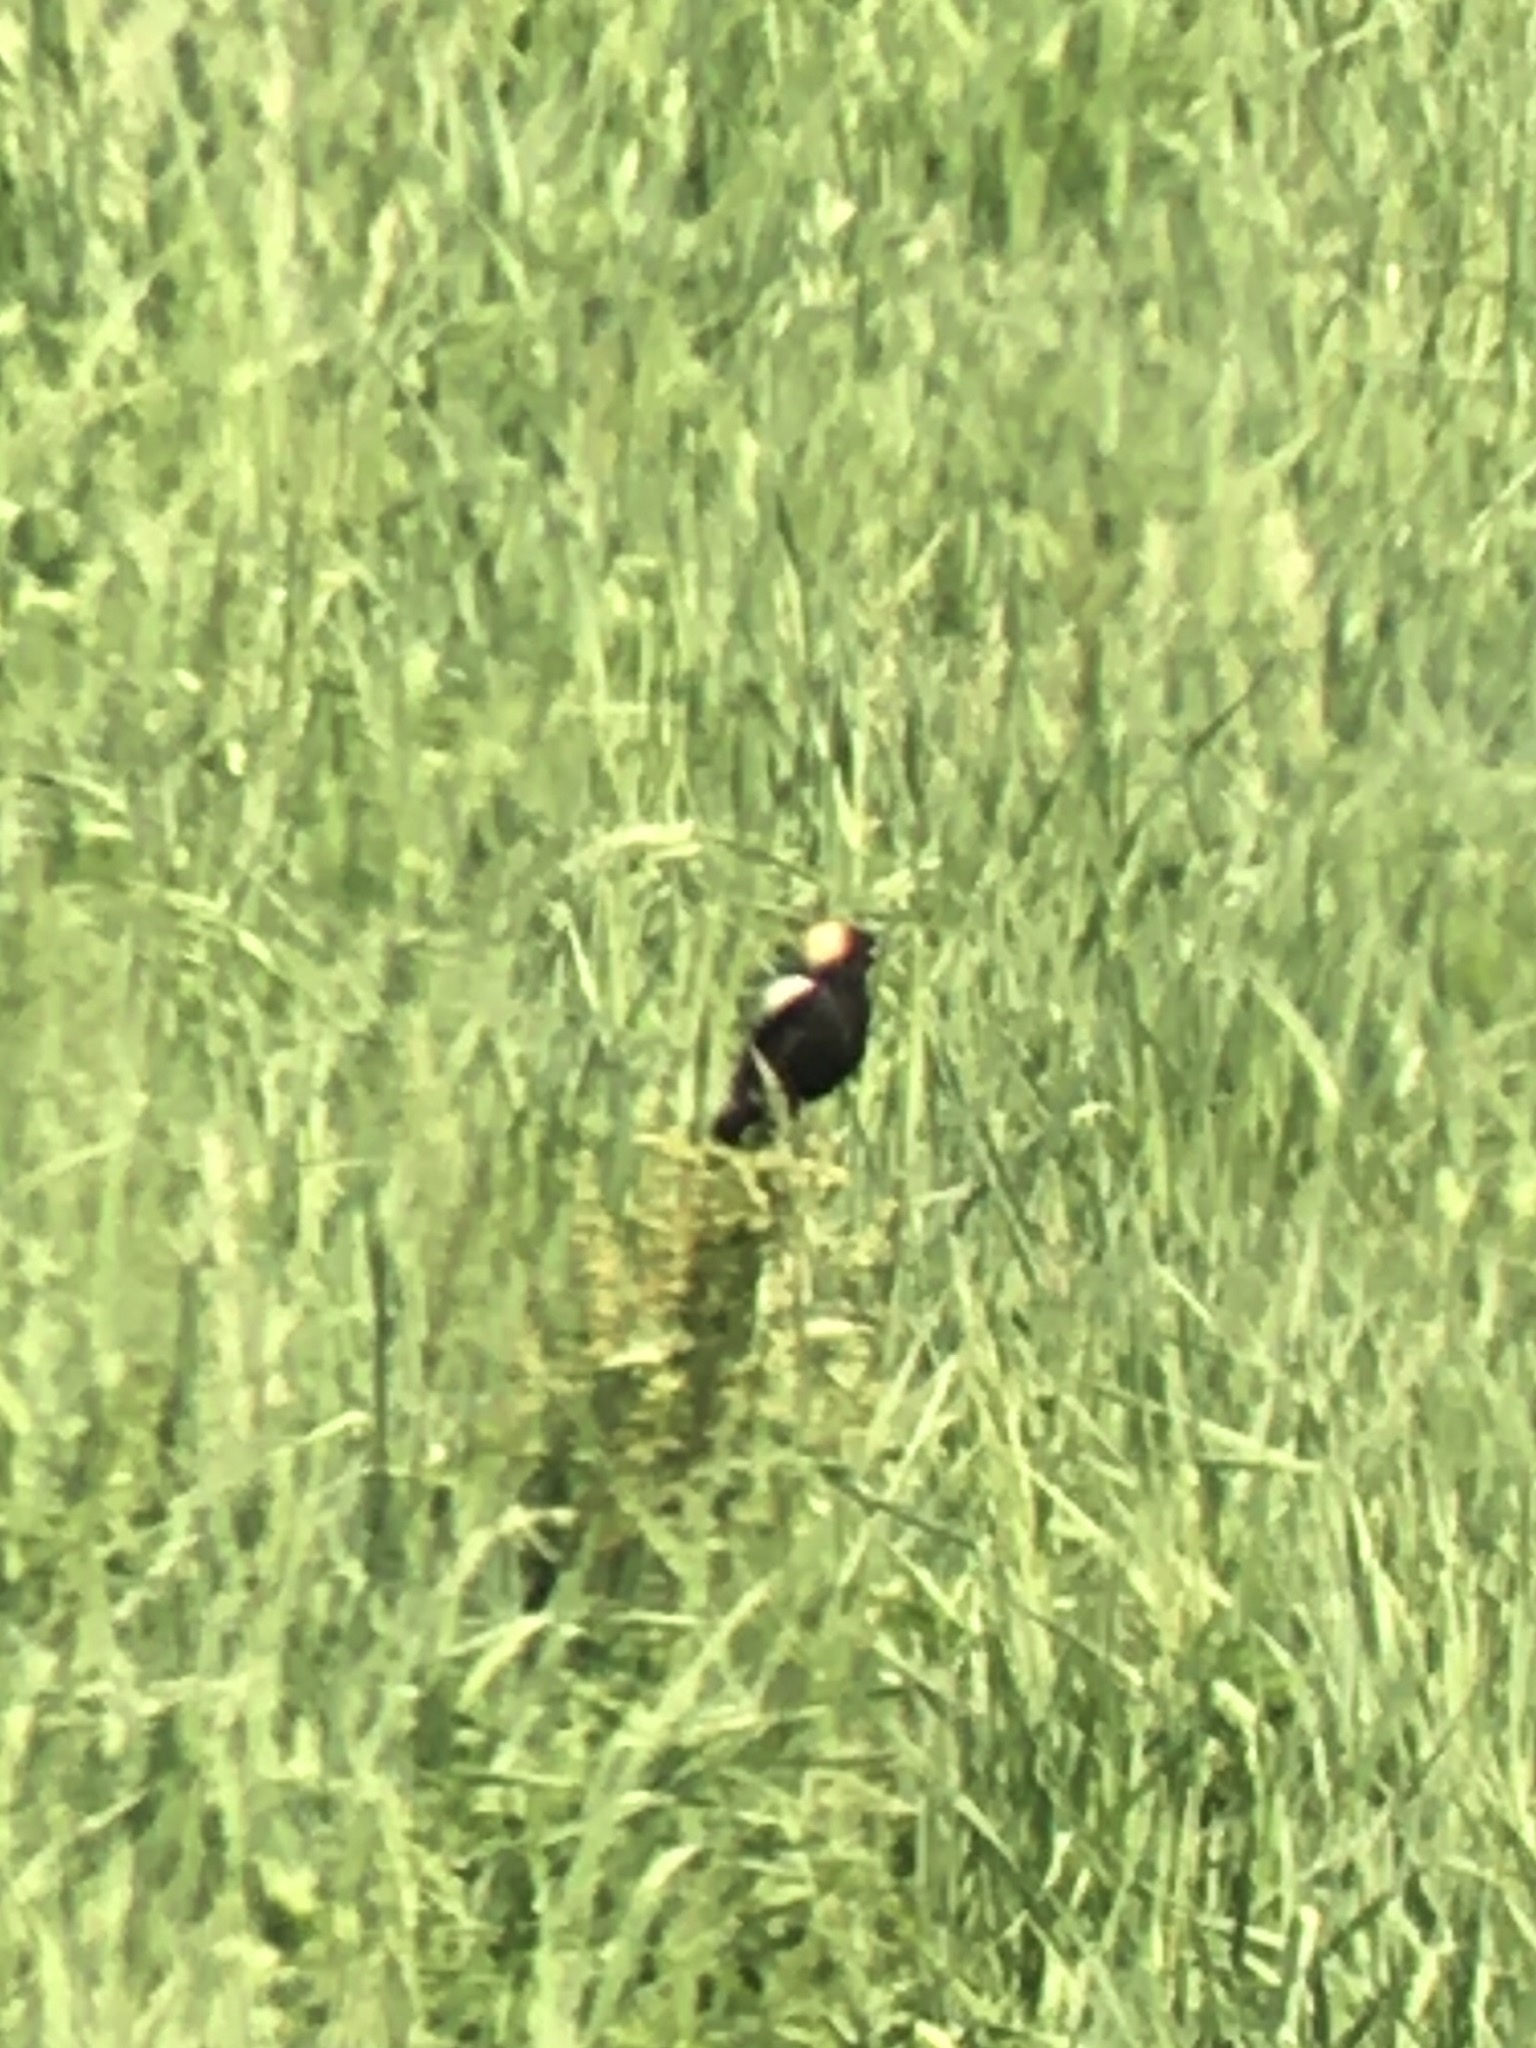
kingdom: Animalia
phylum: Chordata
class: Aves
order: Passeriformes
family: Icteridae
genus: Dolichonyx
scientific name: Dolichonyx oryzivorus
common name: Bobolink
